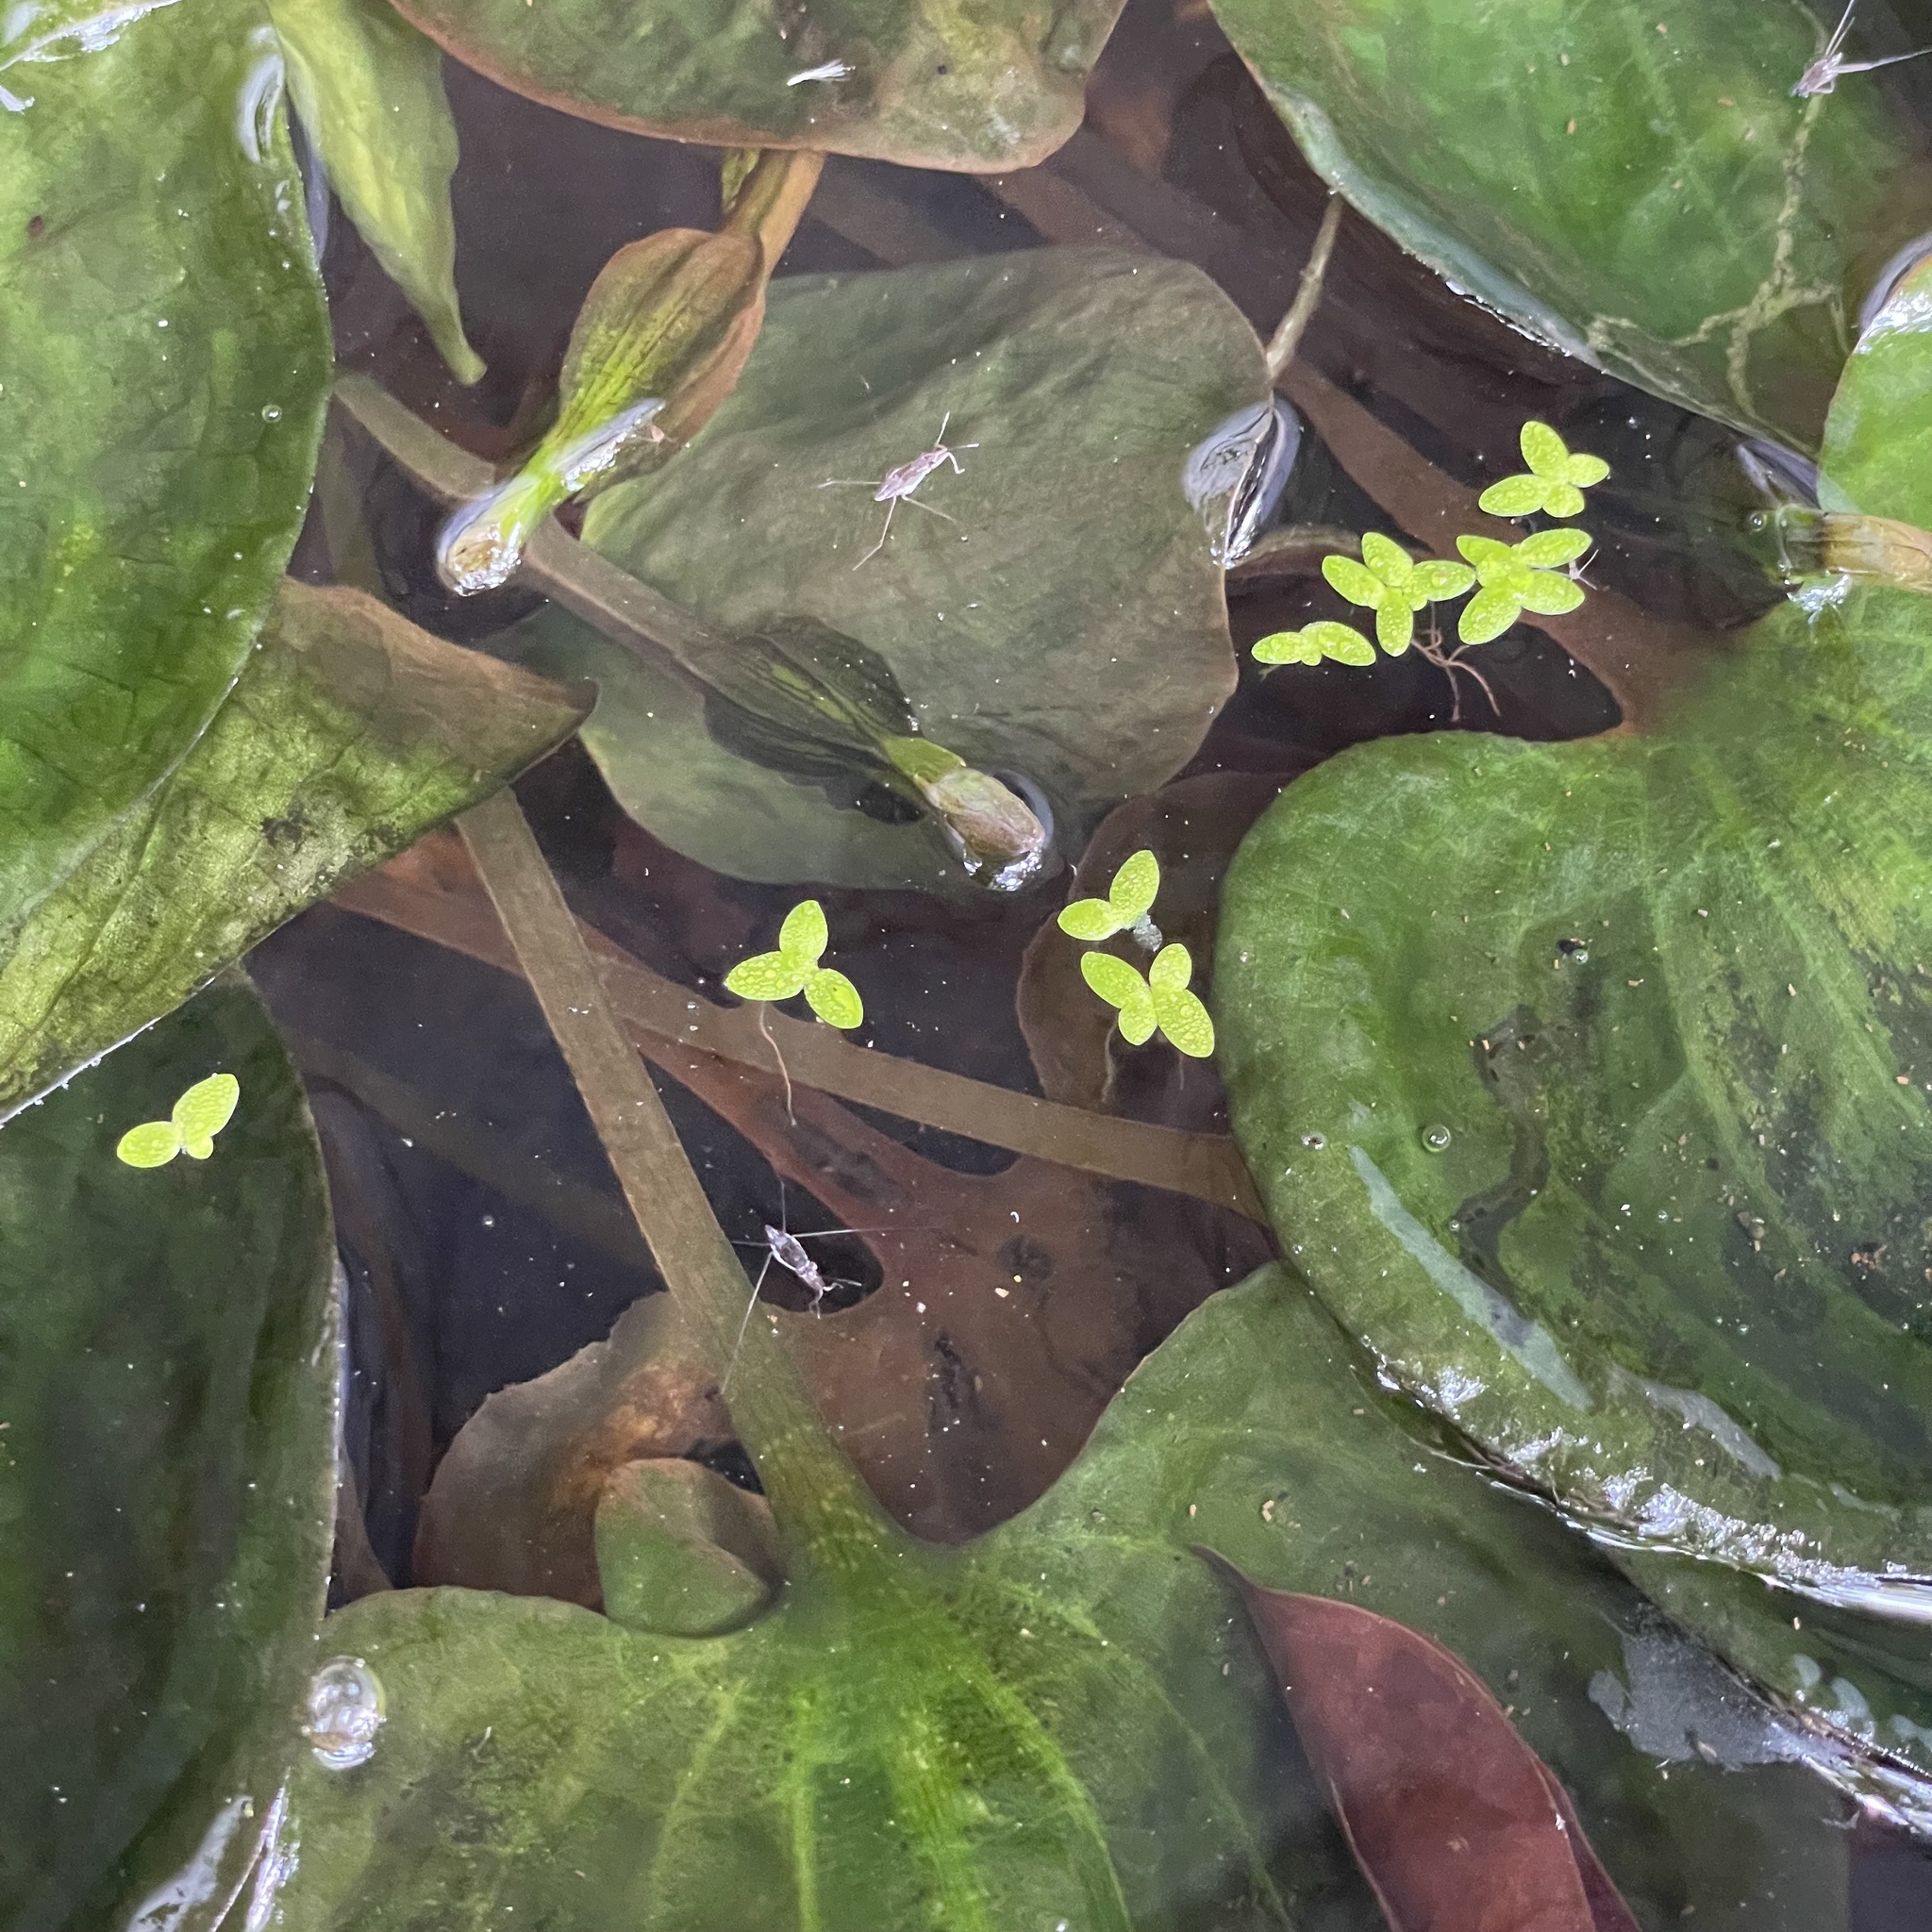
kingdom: Animalia
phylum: Arthropoda
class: Insecta
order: Hemiptera
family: Gerridae
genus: Neogerris
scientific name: Neogerris parvulus
